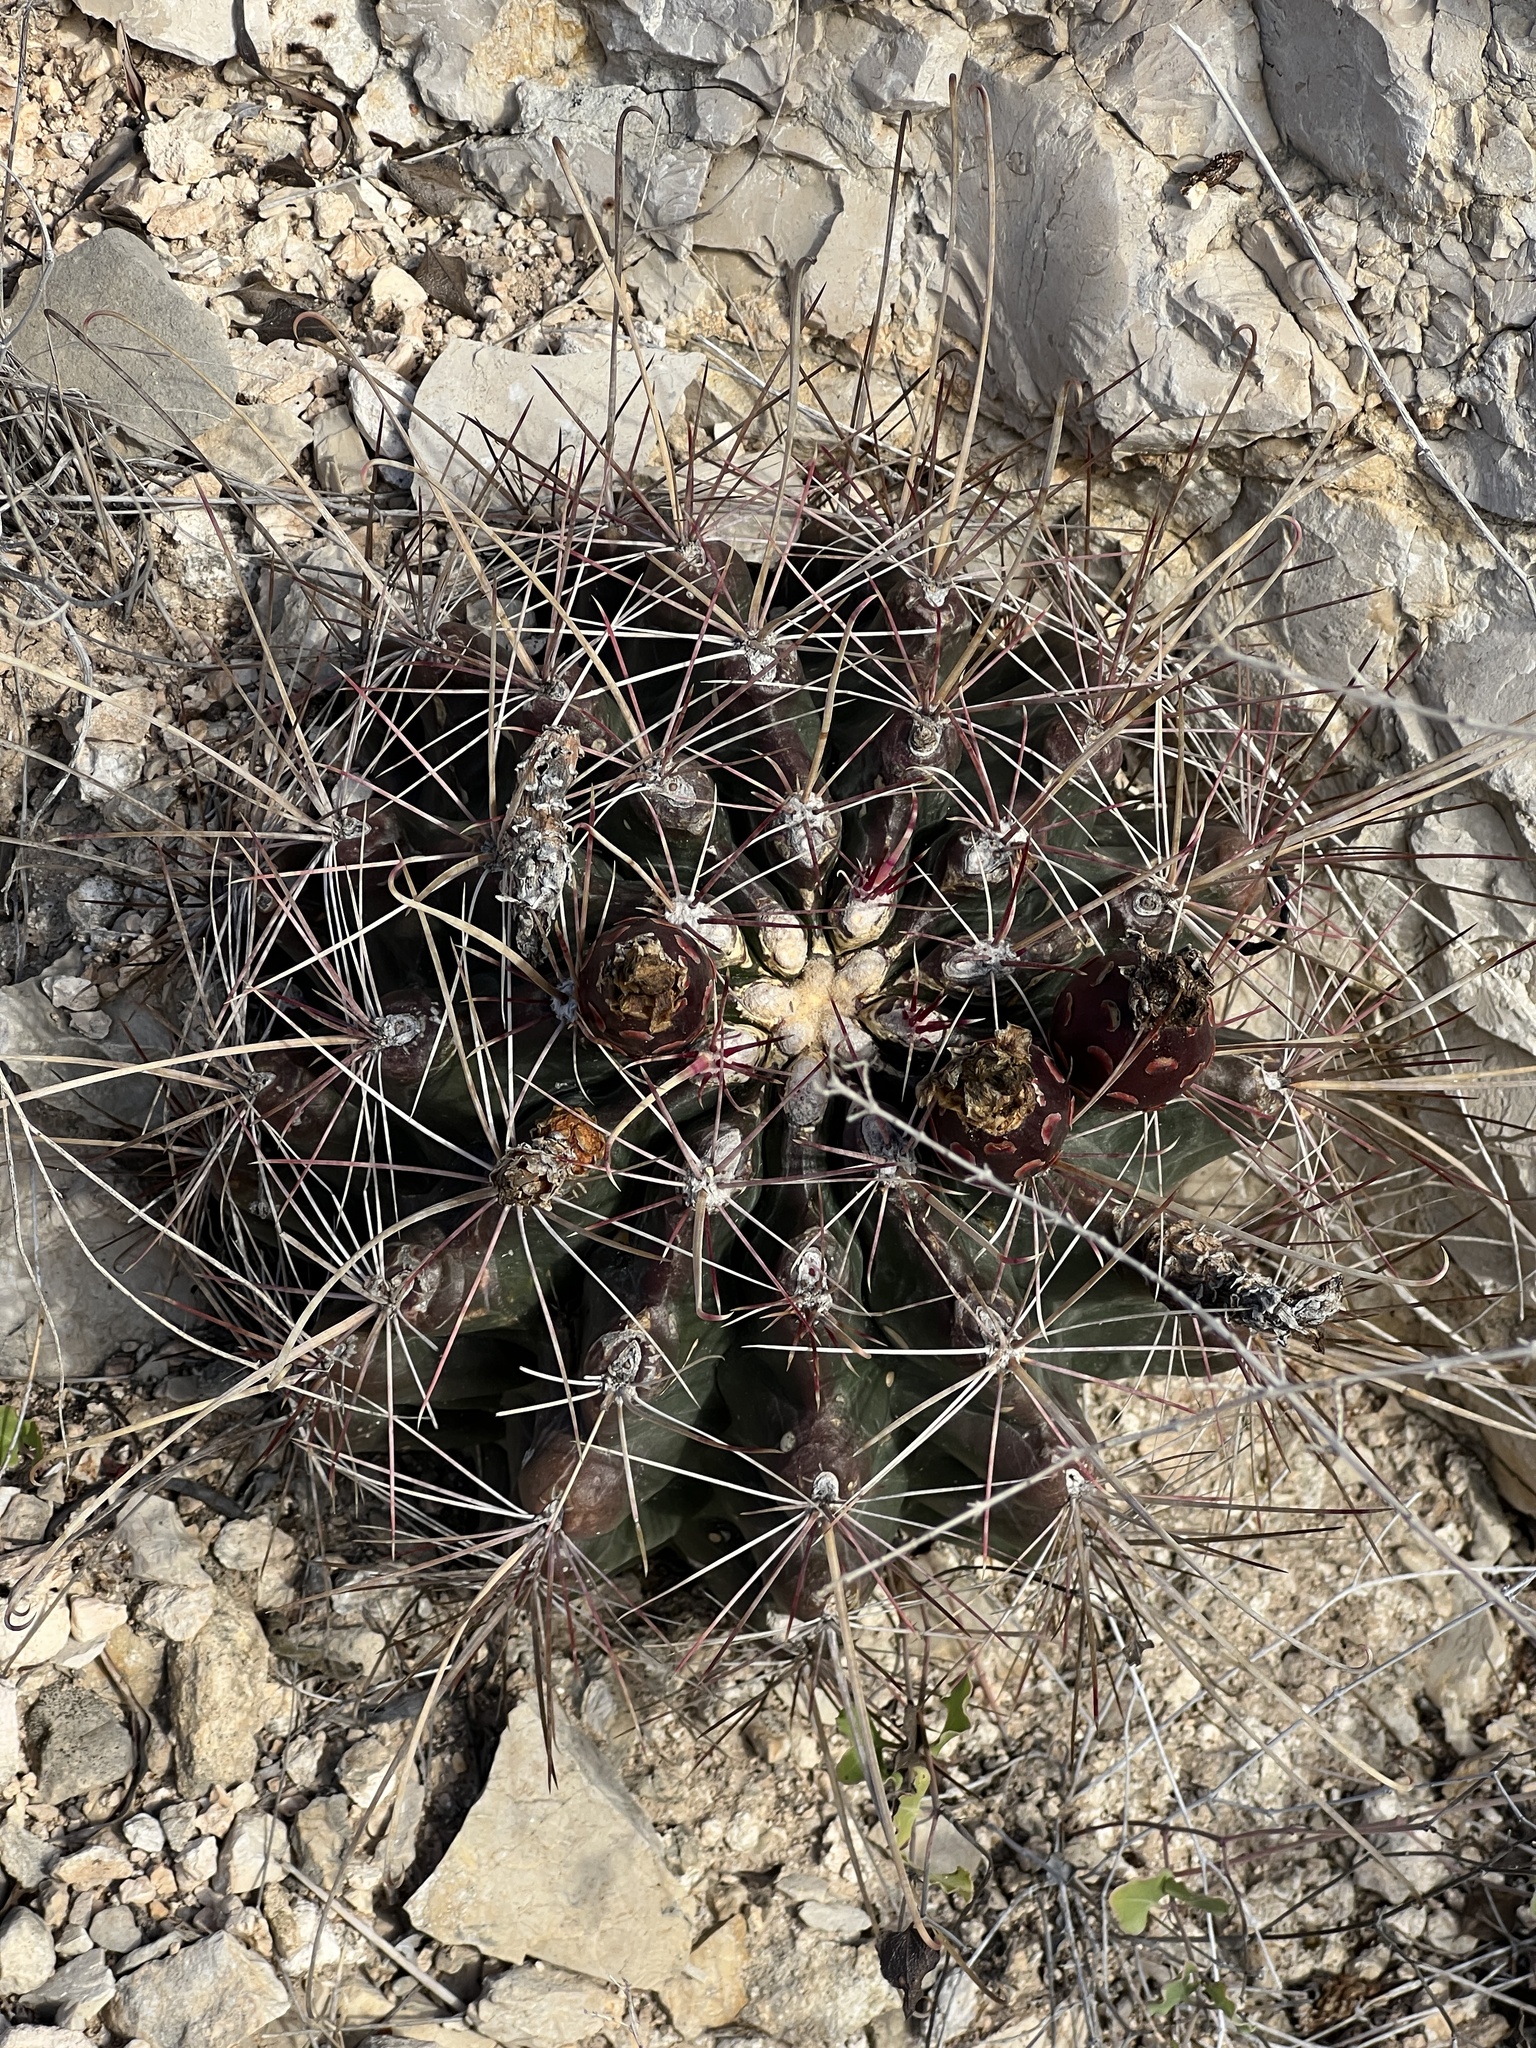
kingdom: Plantae
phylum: Tracheophyta
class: Magnoliopsida
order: Caryophyllales
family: Cactaceae
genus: Bisnaga
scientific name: Bisnaga hamatacantha
